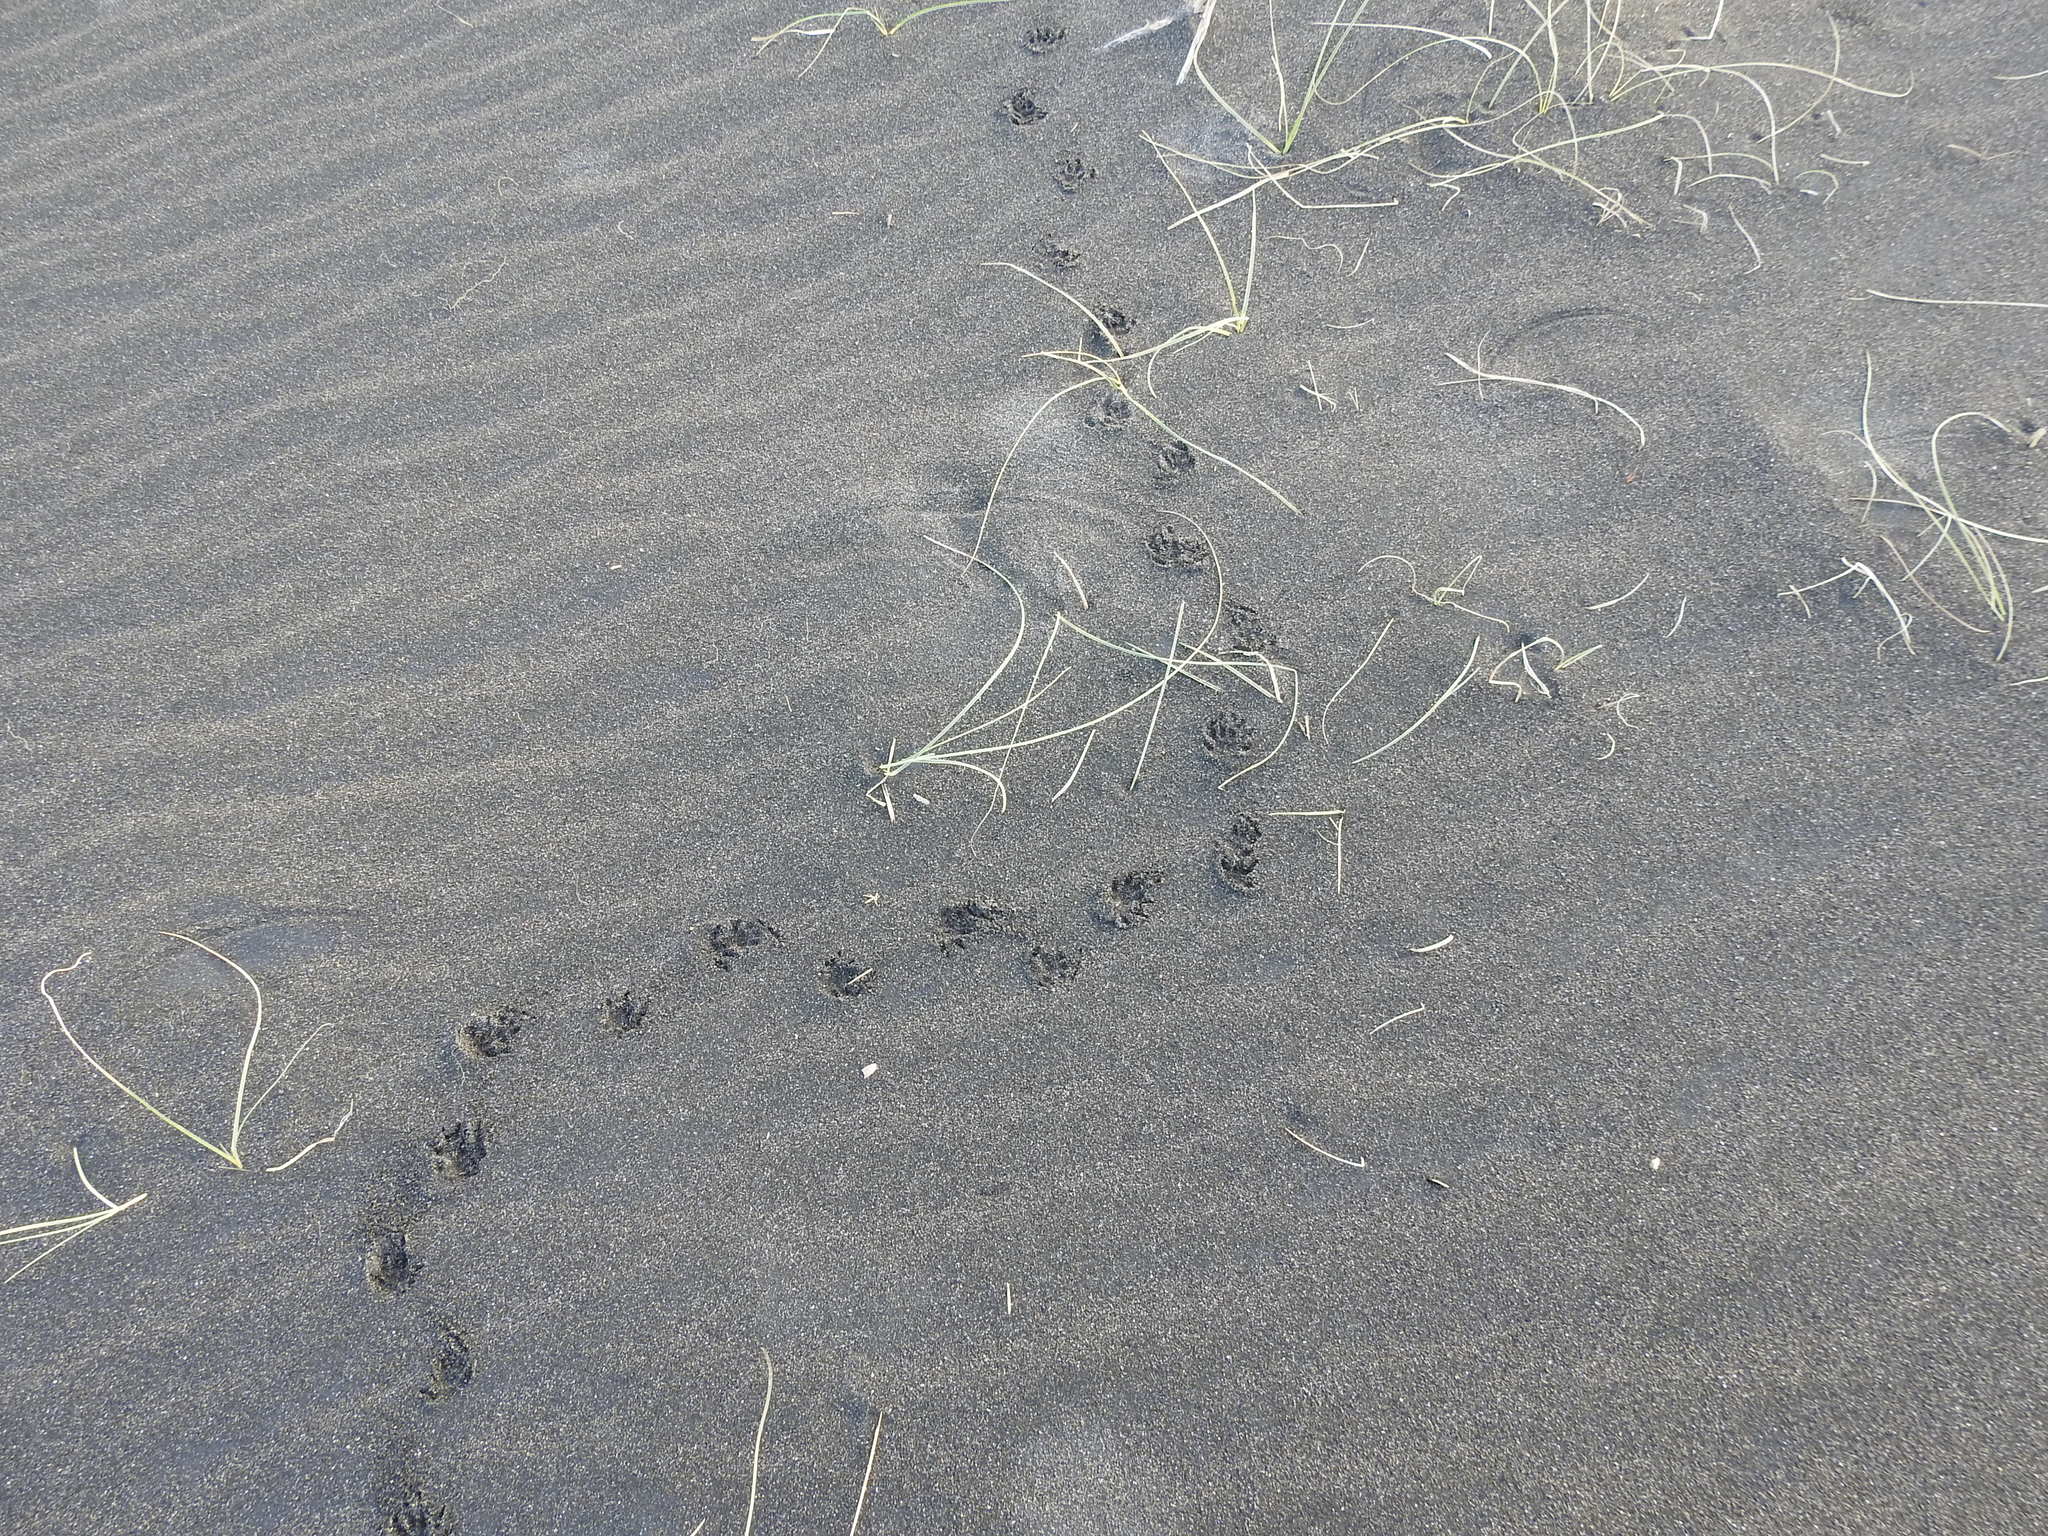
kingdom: Animalia
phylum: Chordata
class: Mammalia
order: Erinaceomorpha
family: Erinaceidae
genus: Erinaceus
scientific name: Erinaceus europaeus
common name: West european hedgehog
